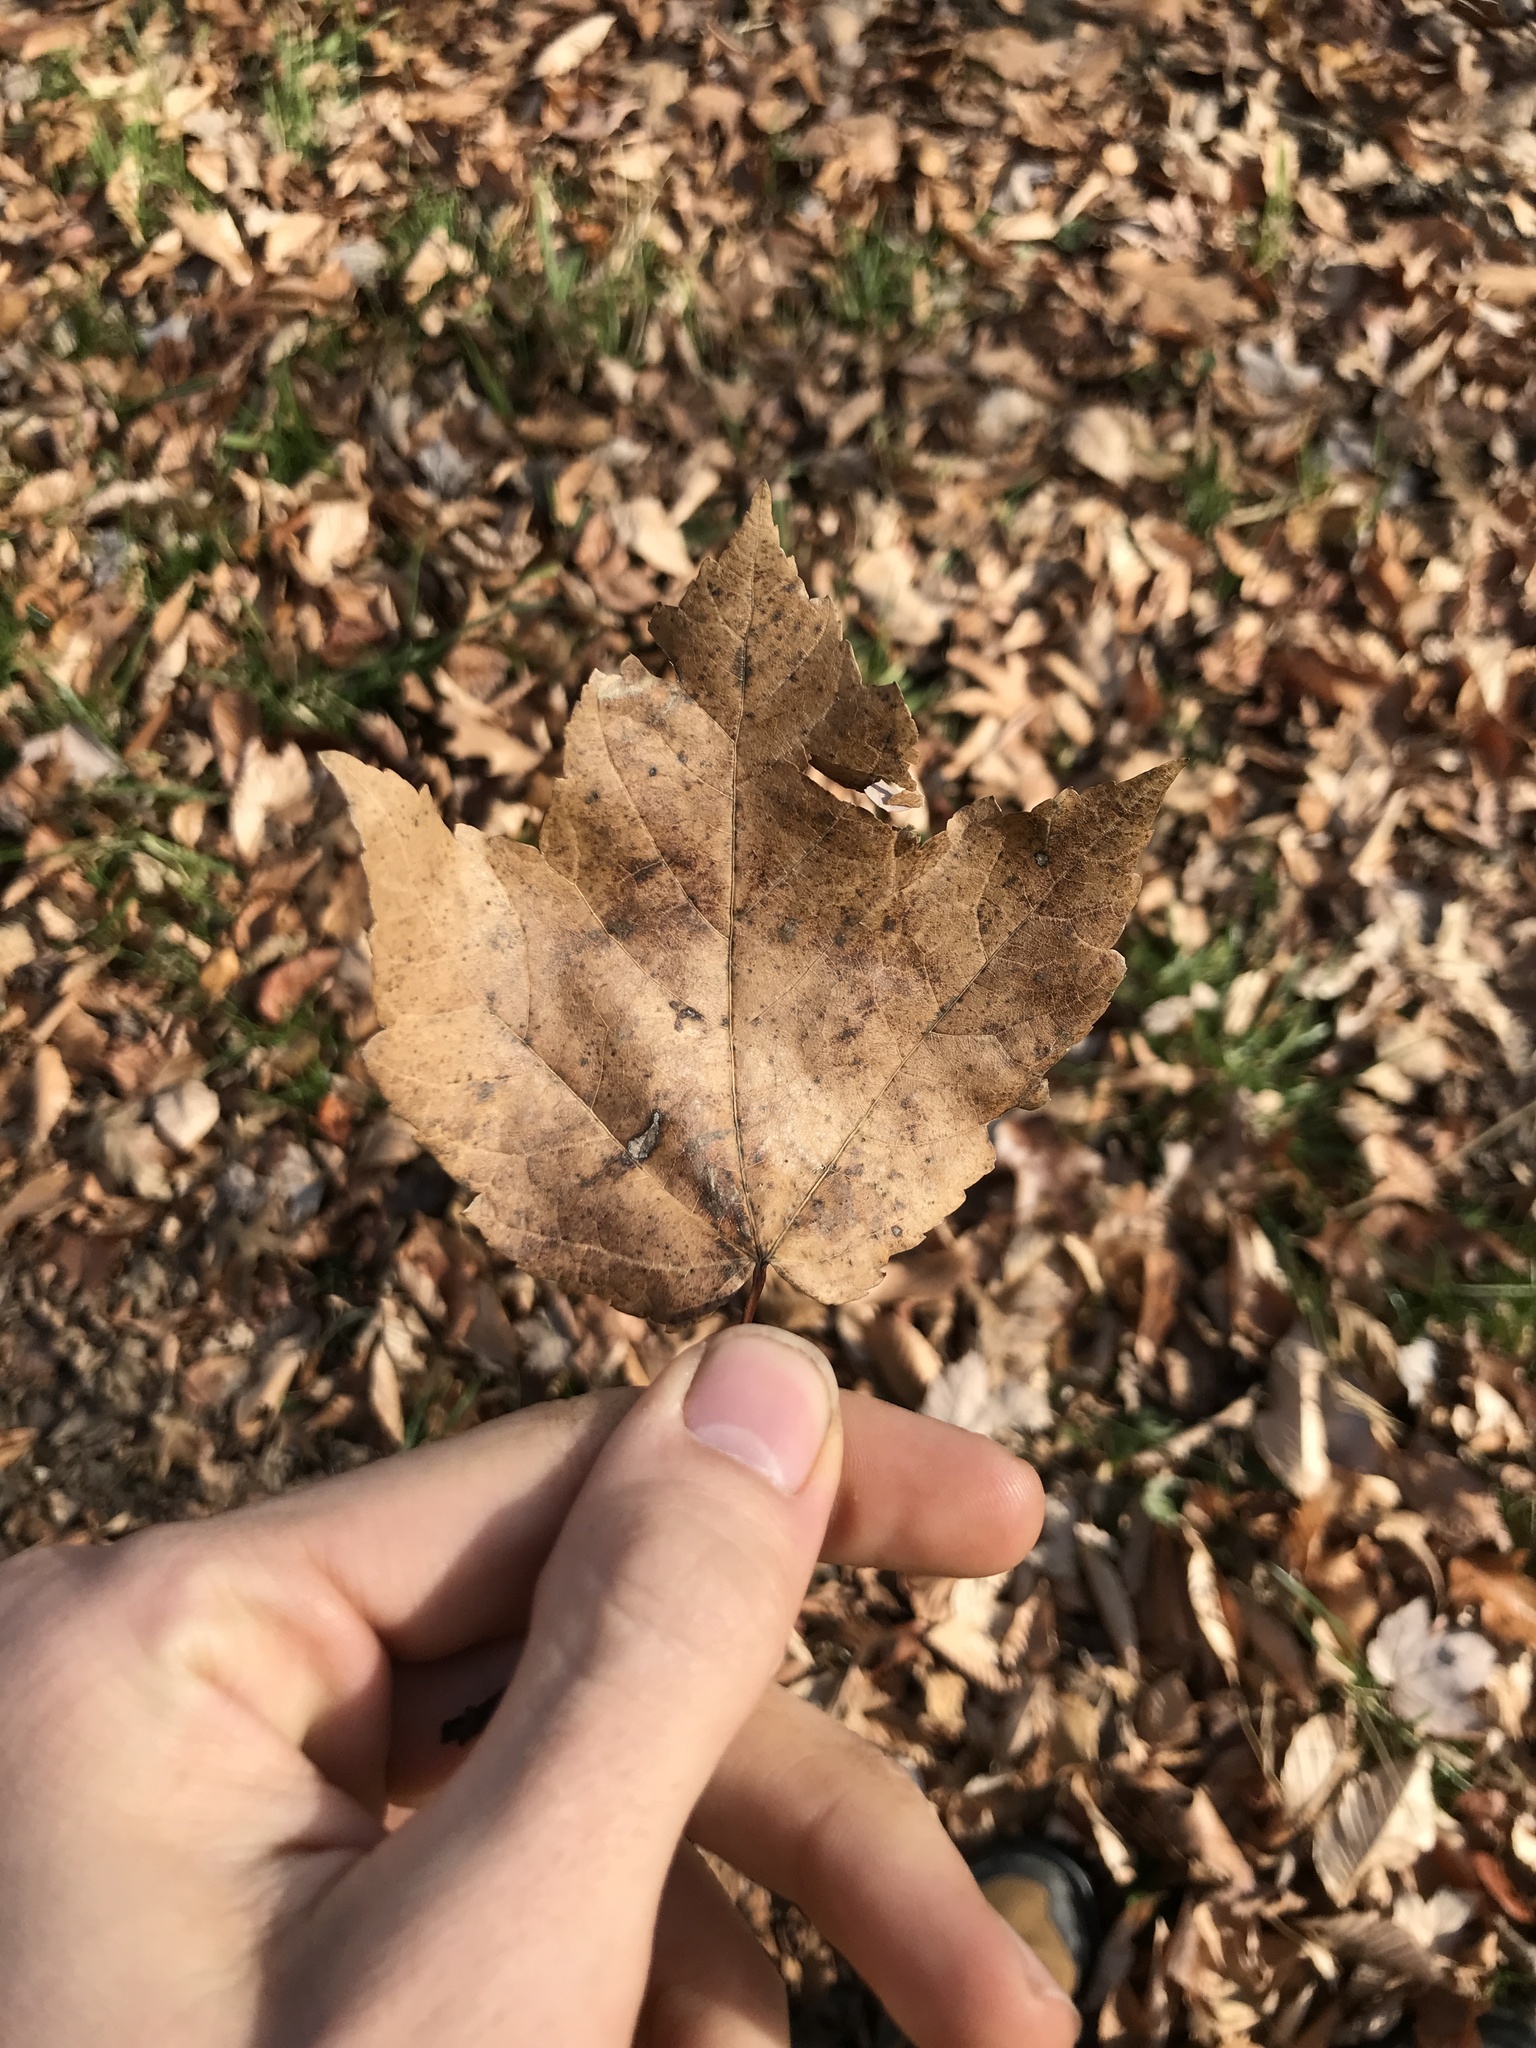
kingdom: Plantae
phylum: Tracheophyta
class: Magnoliopsida
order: Sapindales
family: Sapindaceae
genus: Acer
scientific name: Acer rubrum
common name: Red maple
